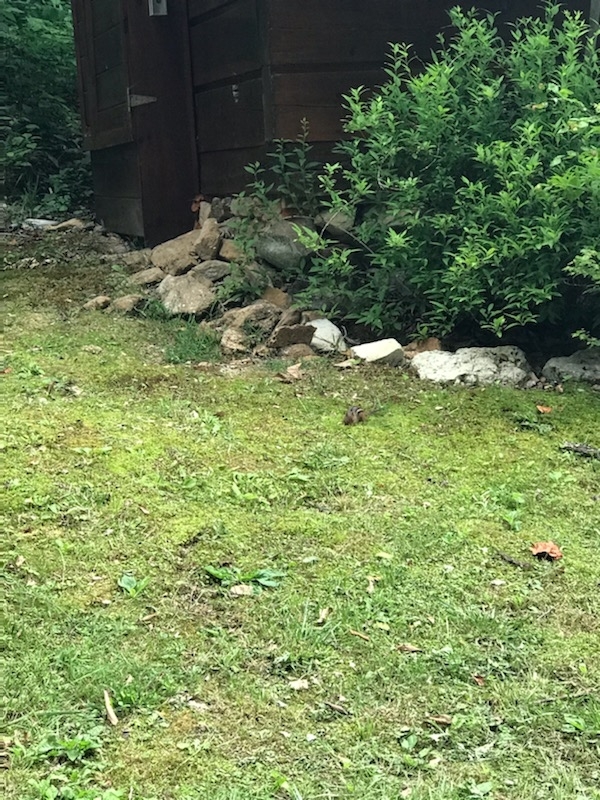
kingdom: Animalia
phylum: Chordata
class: Mammalia
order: Rodentia
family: Sciuridae
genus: Tamias
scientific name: Tamias striatus
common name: Eastern chipmunk
